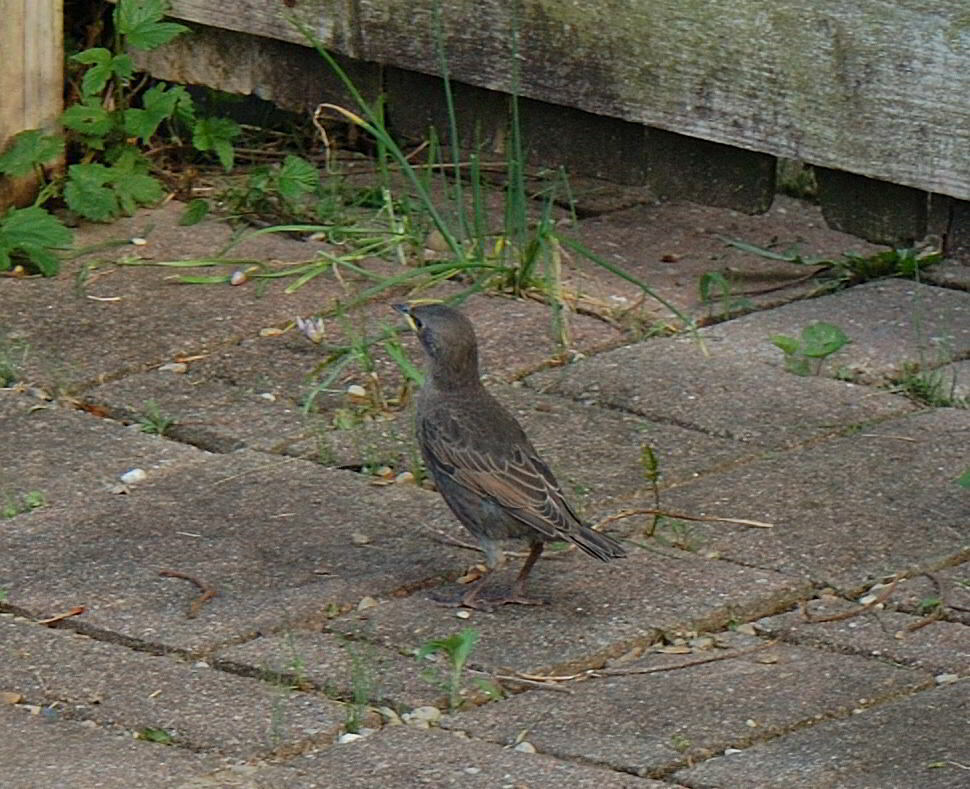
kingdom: Animalia
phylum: Chordata
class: Aves
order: Passeriformes
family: Sturnidae
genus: Sturnus
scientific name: Sturnus vulgaris
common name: Common starling
